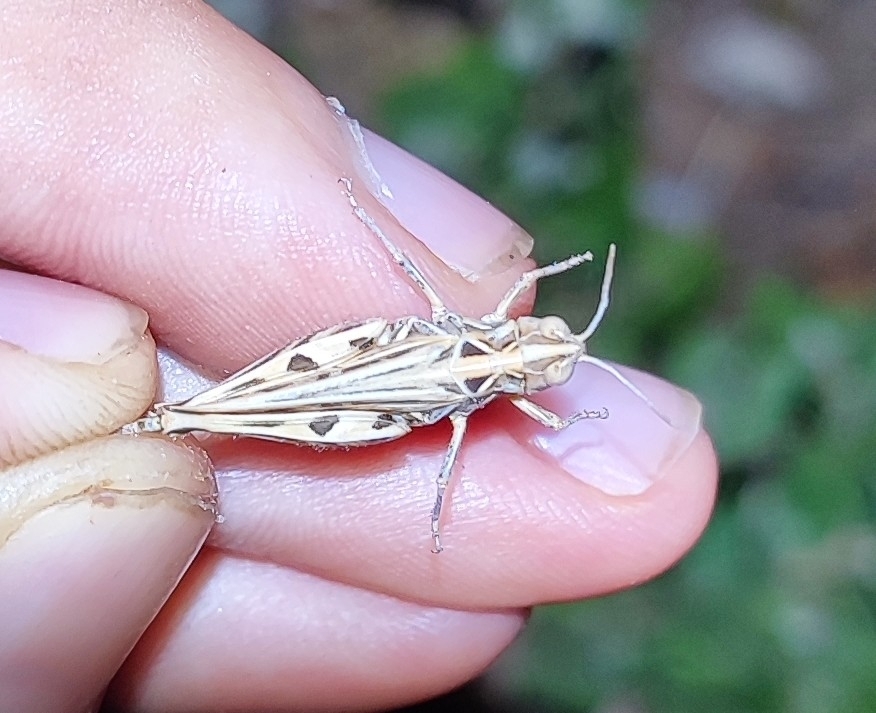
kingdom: Animalia
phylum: Arthropoda
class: Insecta
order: Orthoptera
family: Acrididae
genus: Dociostaurus
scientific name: Dociostaurus jagoi
